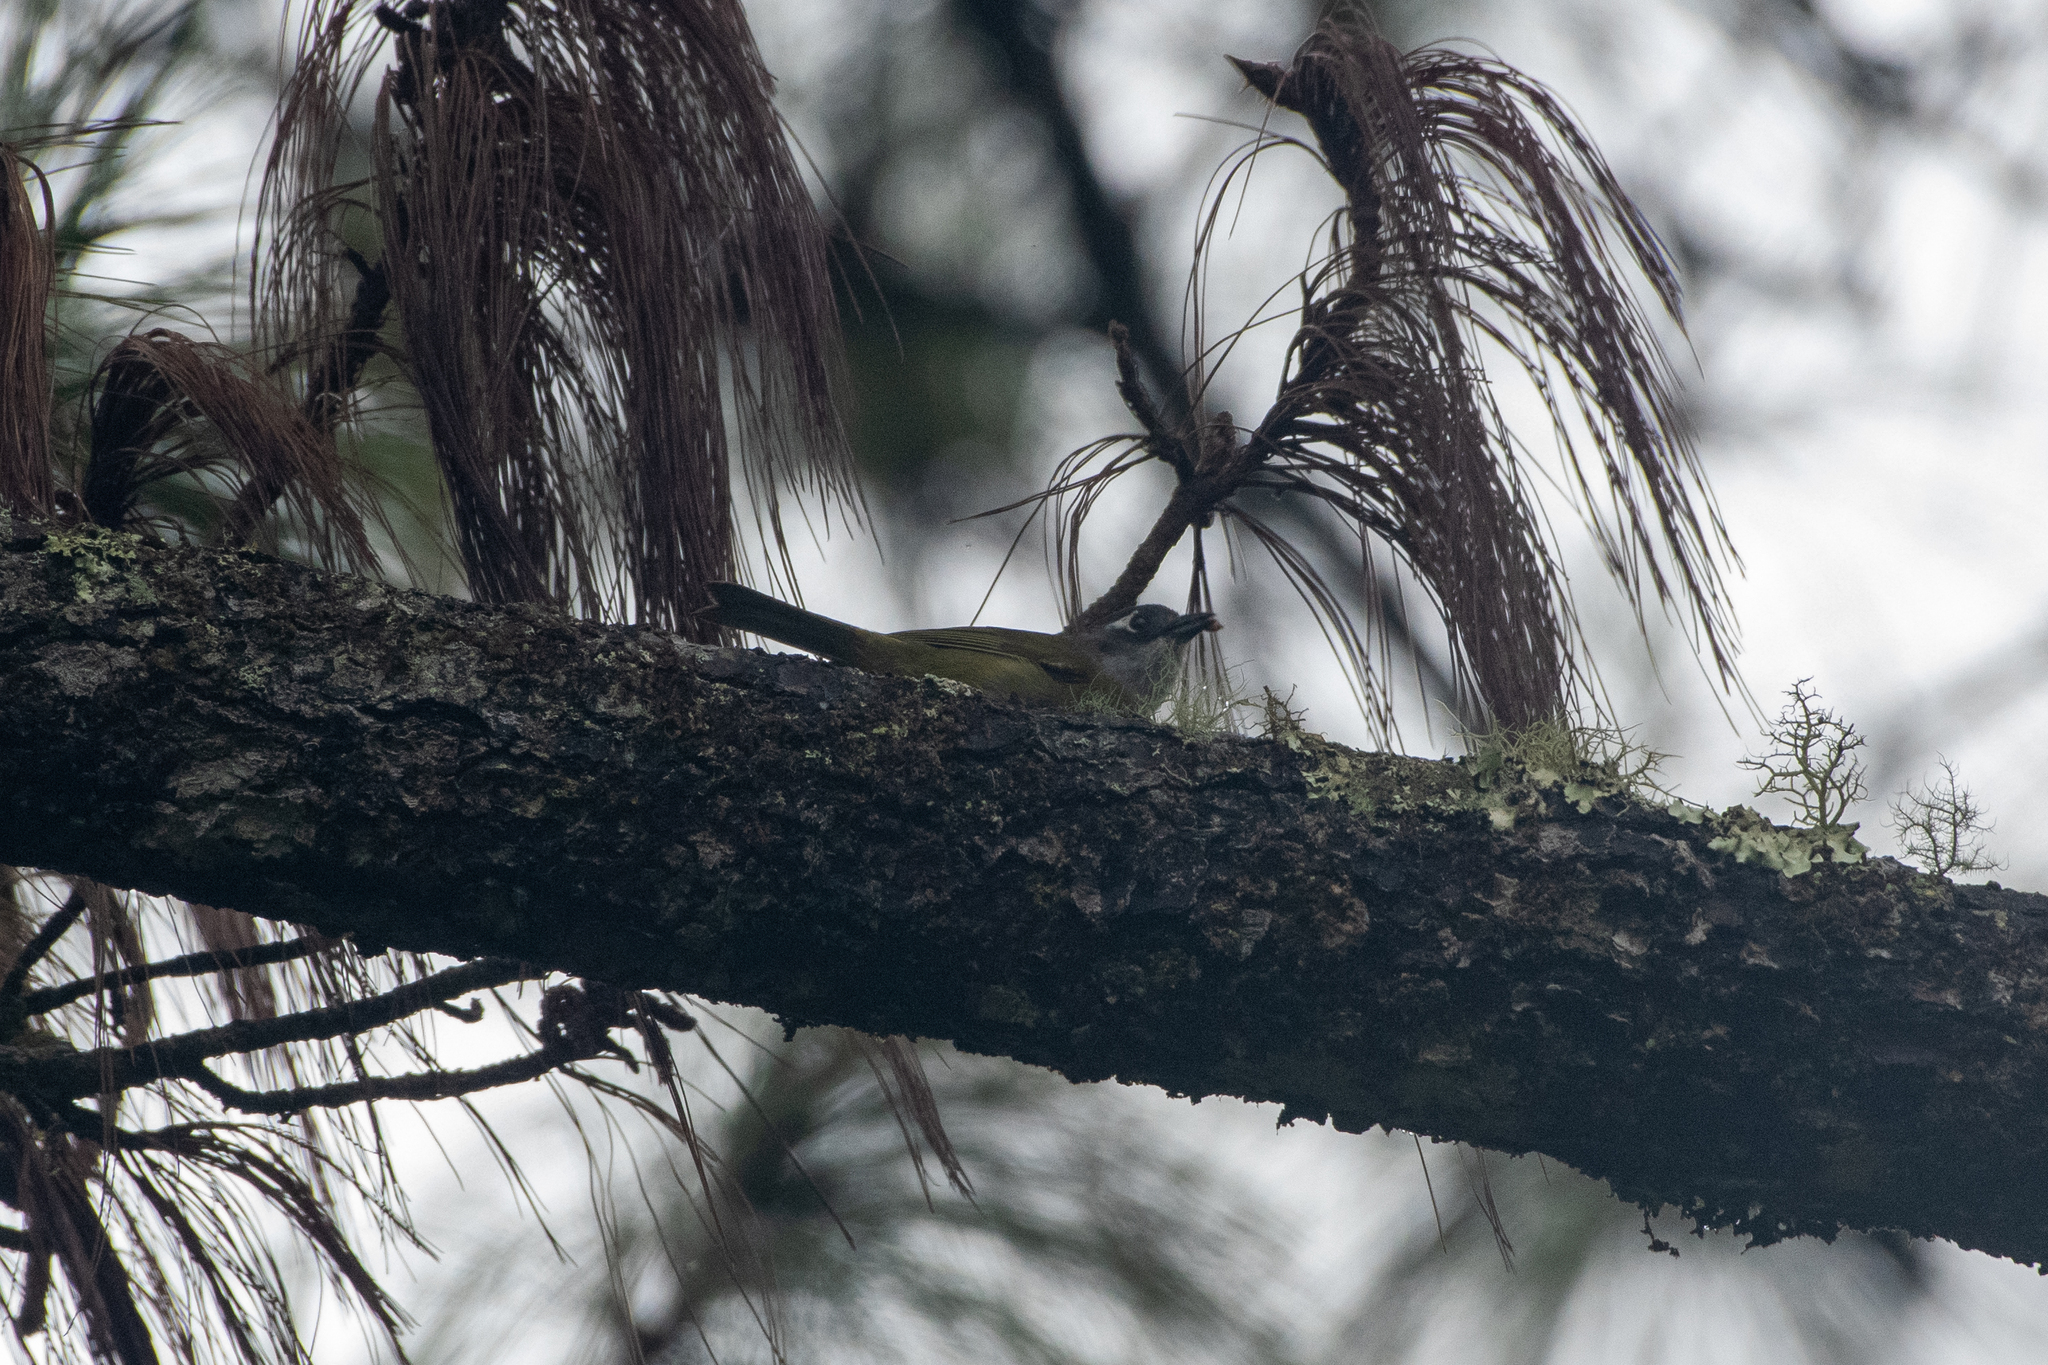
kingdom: Animalia
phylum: Chordata
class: Aves
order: Passeriformes
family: Passerellidae
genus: Chlorospingus
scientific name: Chlorospingus flavopectus
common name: Common chlorospingus
